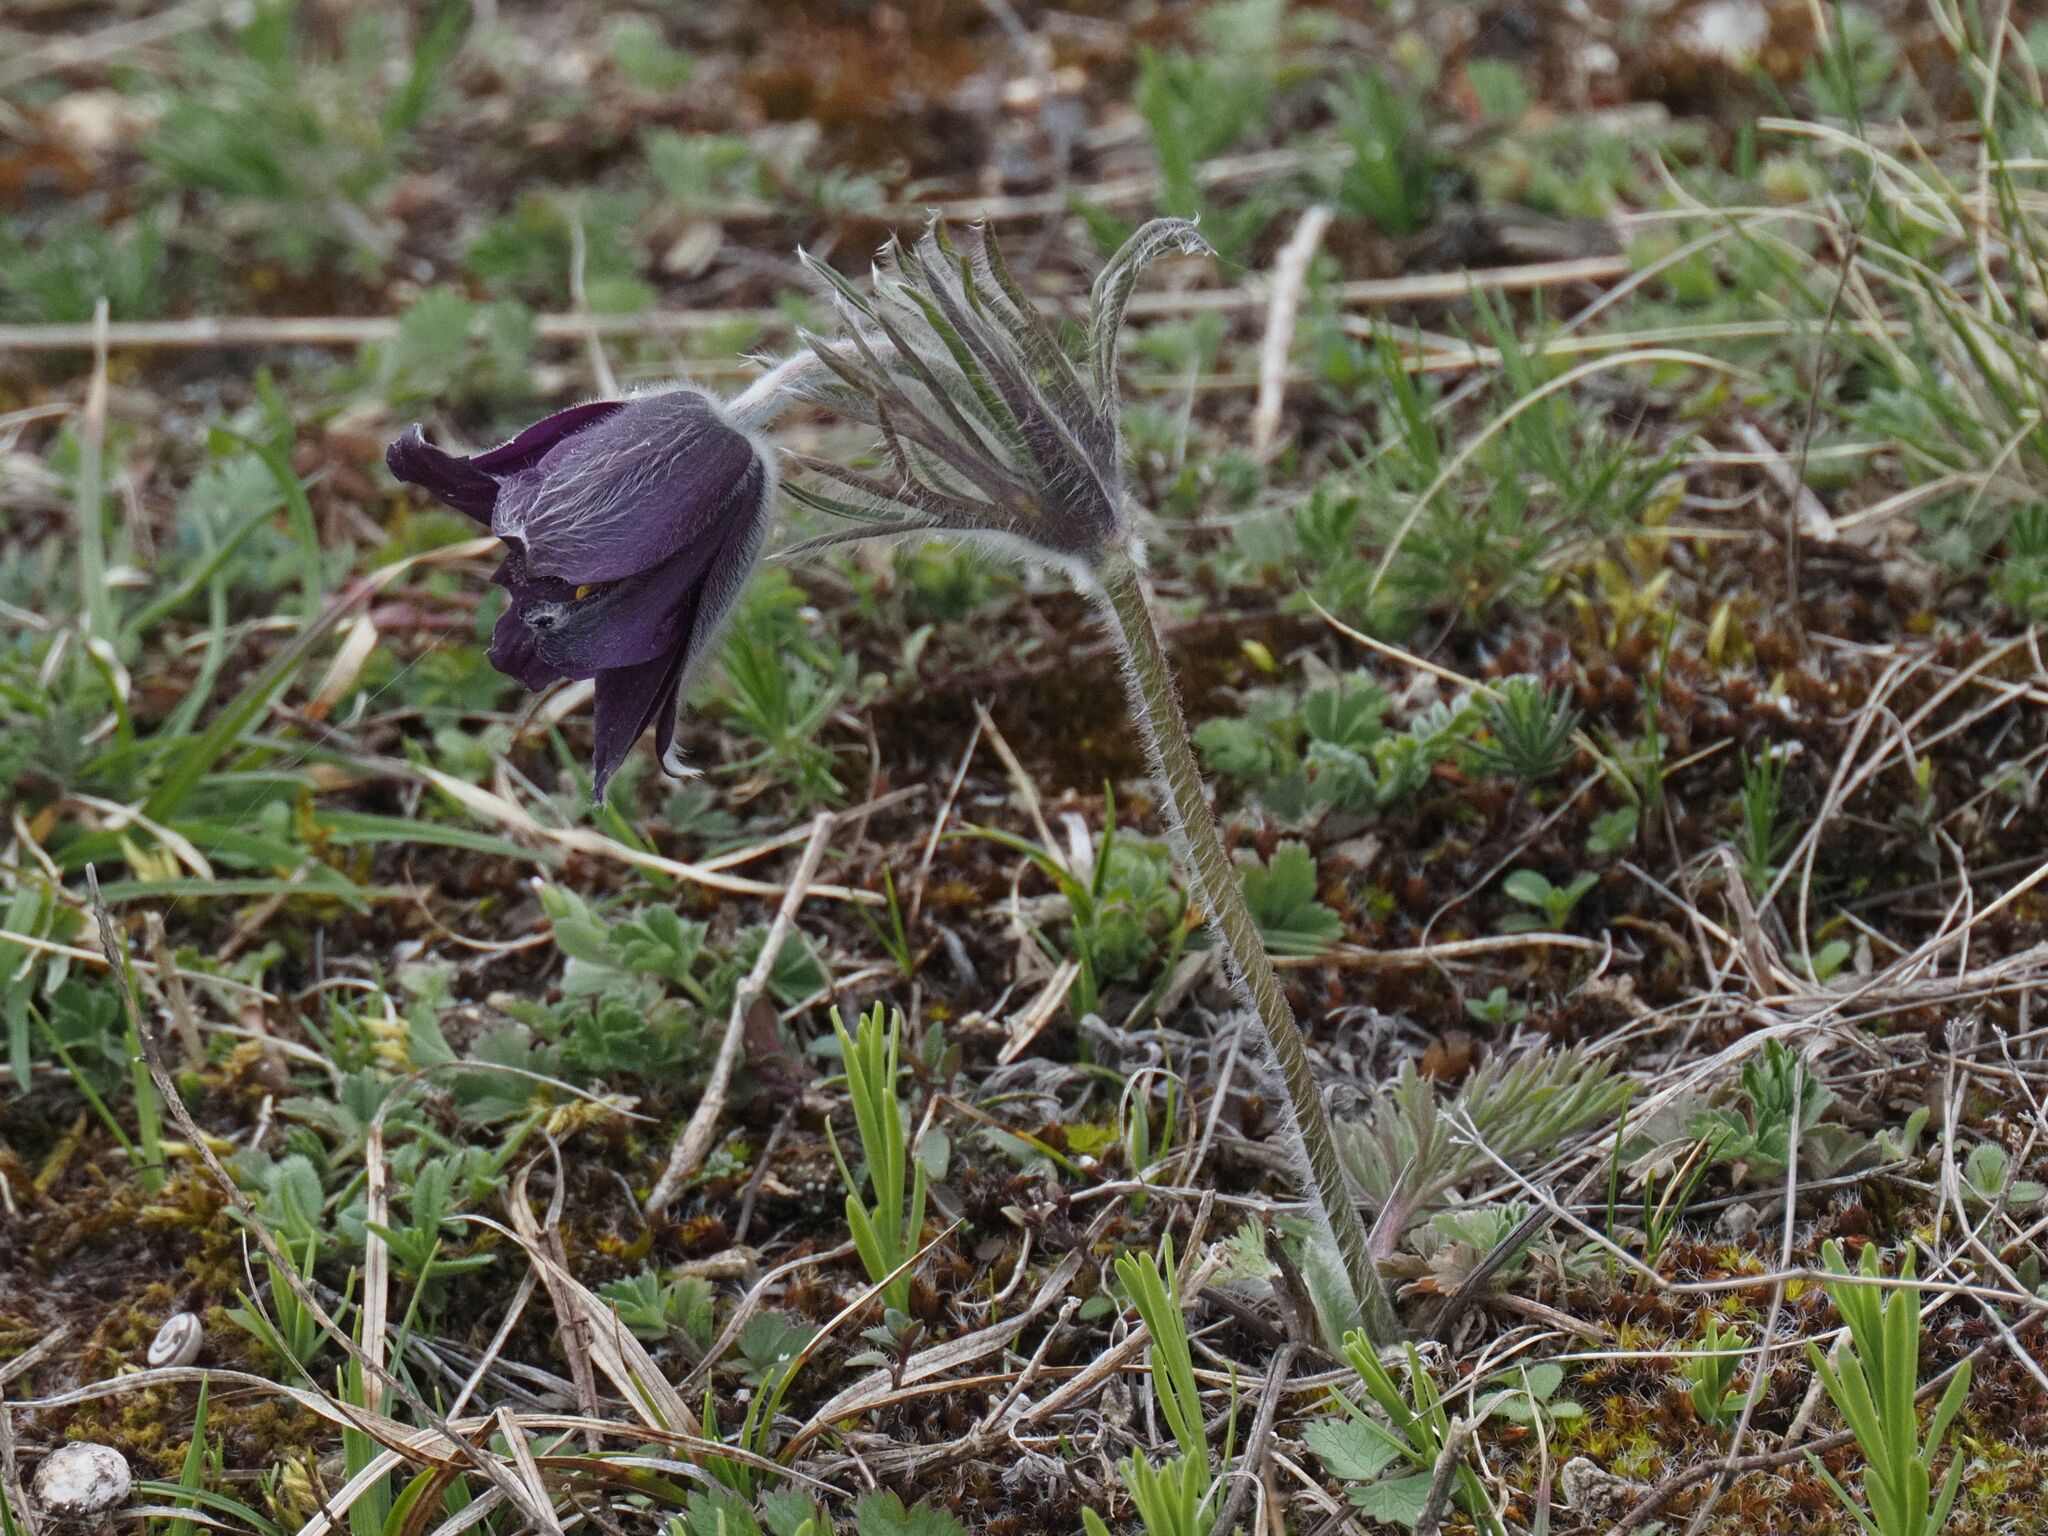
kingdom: Plantae
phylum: Tracheophyta
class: Magnoliopsida
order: Ranunculales
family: Ranunculaceae
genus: Pulsatilla
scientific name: Pulsatilla pratensis
